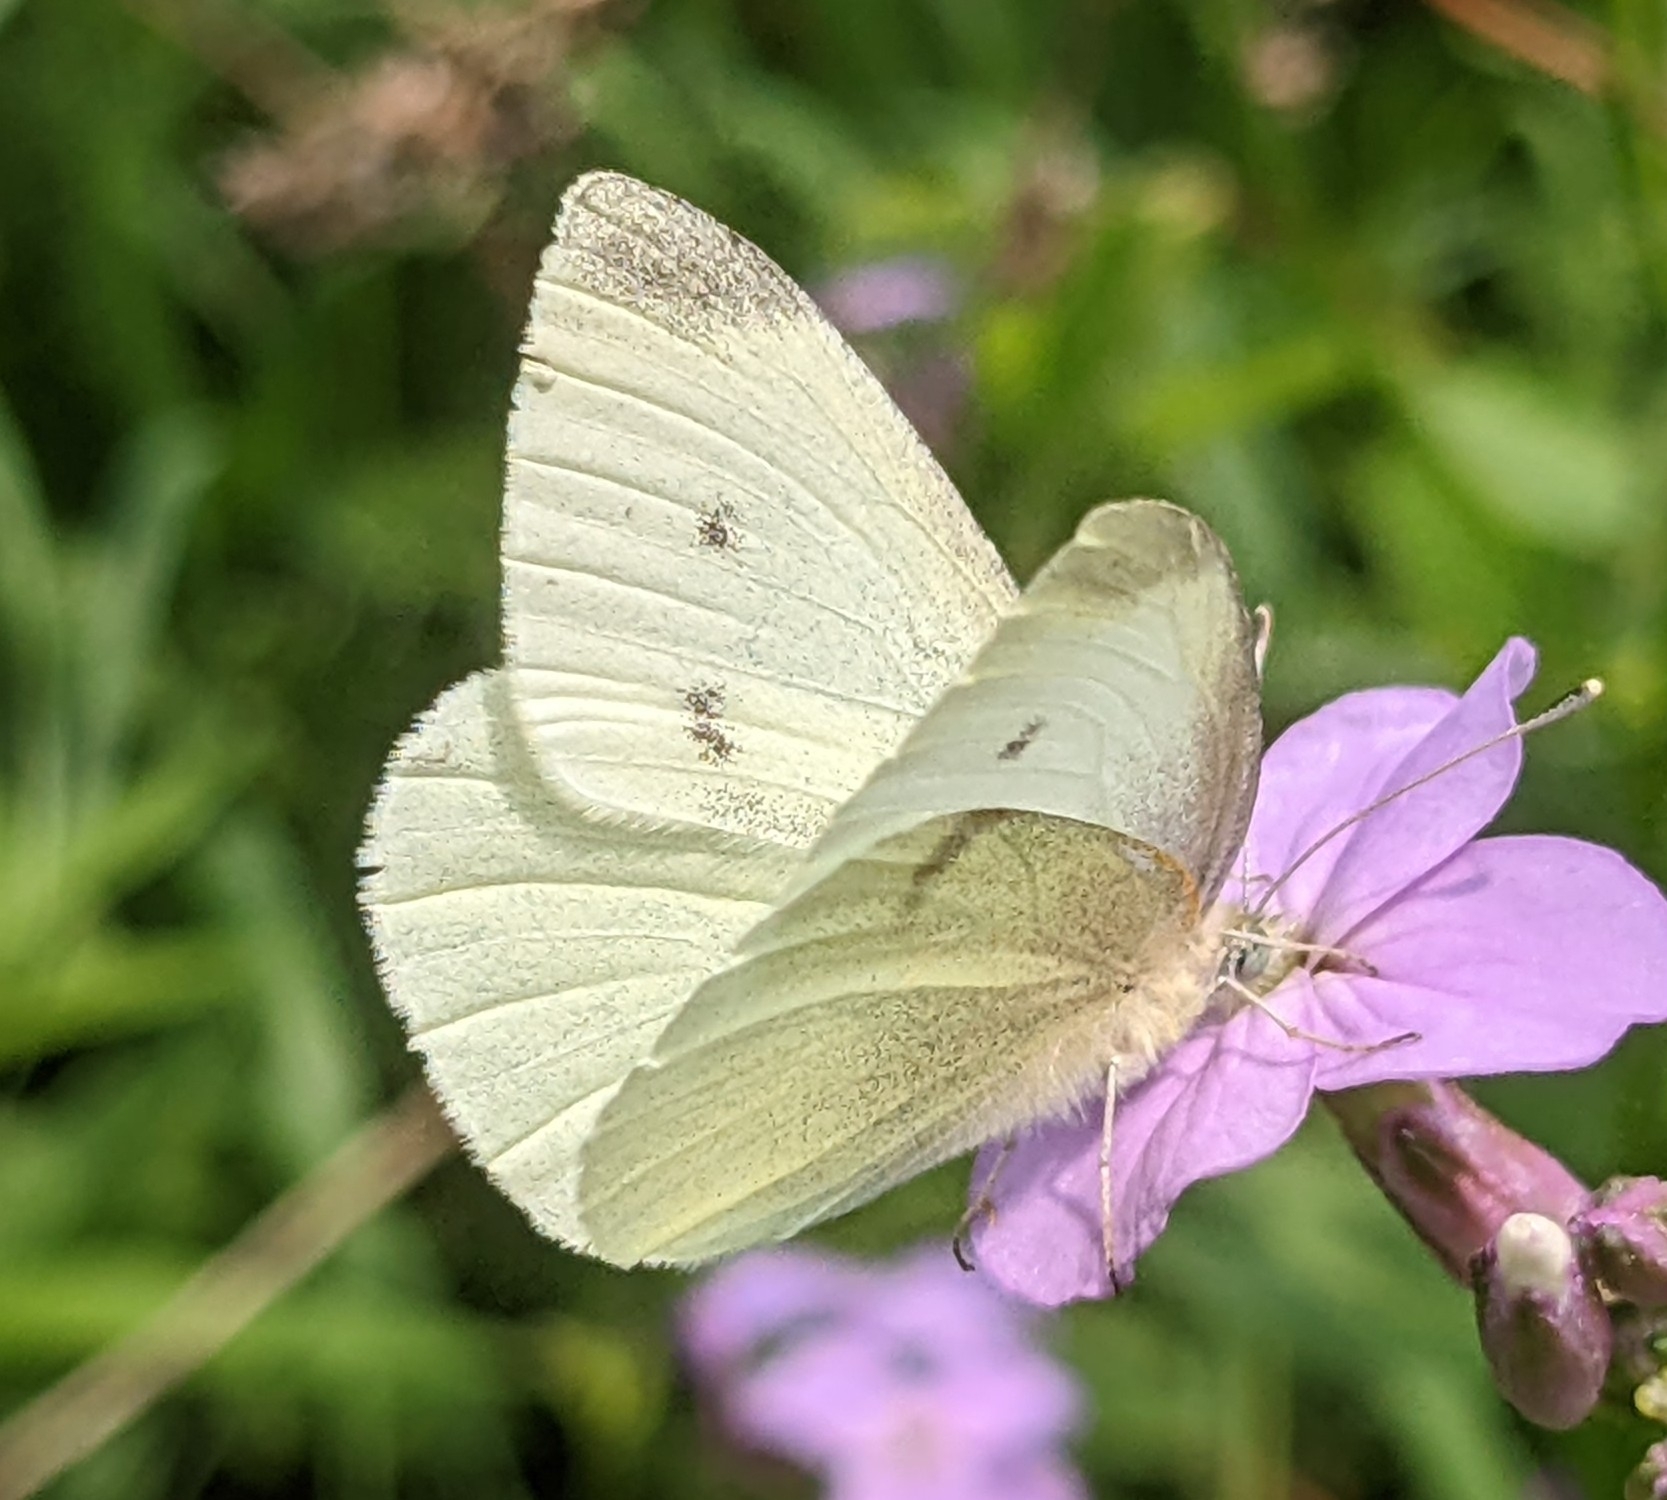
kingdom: Animalia
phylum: Arthropoda
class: Insecta
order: Lepidoptera
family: Pieridae
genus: Pieris
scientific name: Pieris rapae
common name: Small white
